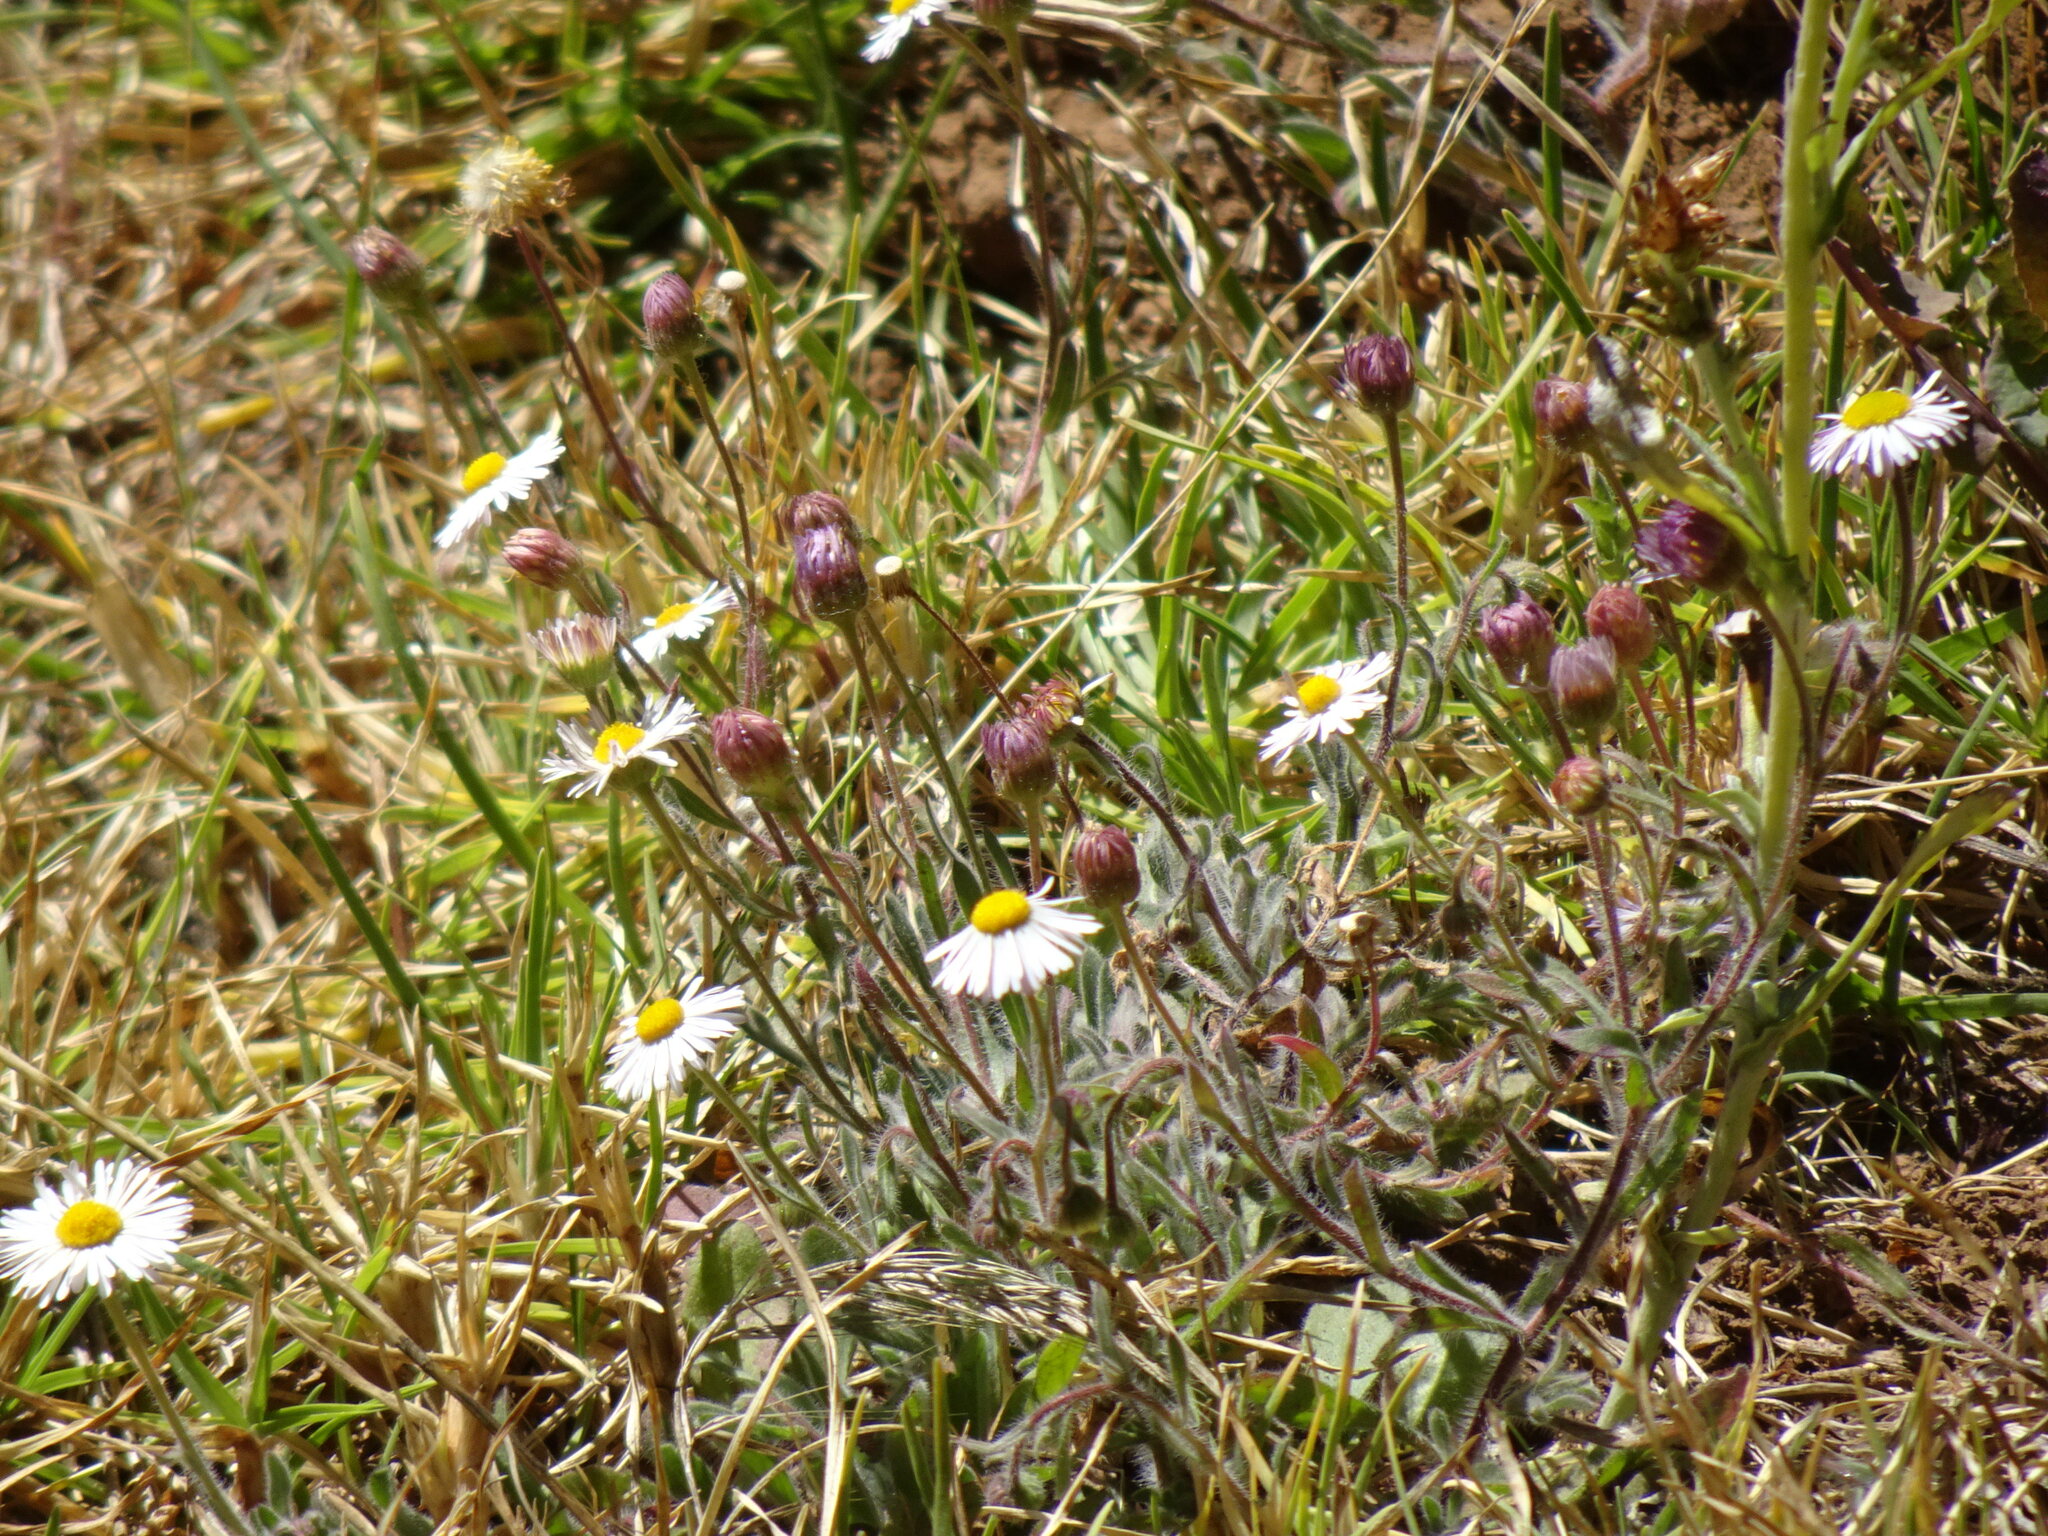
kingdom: Plantae
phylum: Tracheophyta
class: Magnoliopsida
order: Asterales
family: Asteraceae
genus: Erigeron
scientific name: Erigeron longipes
